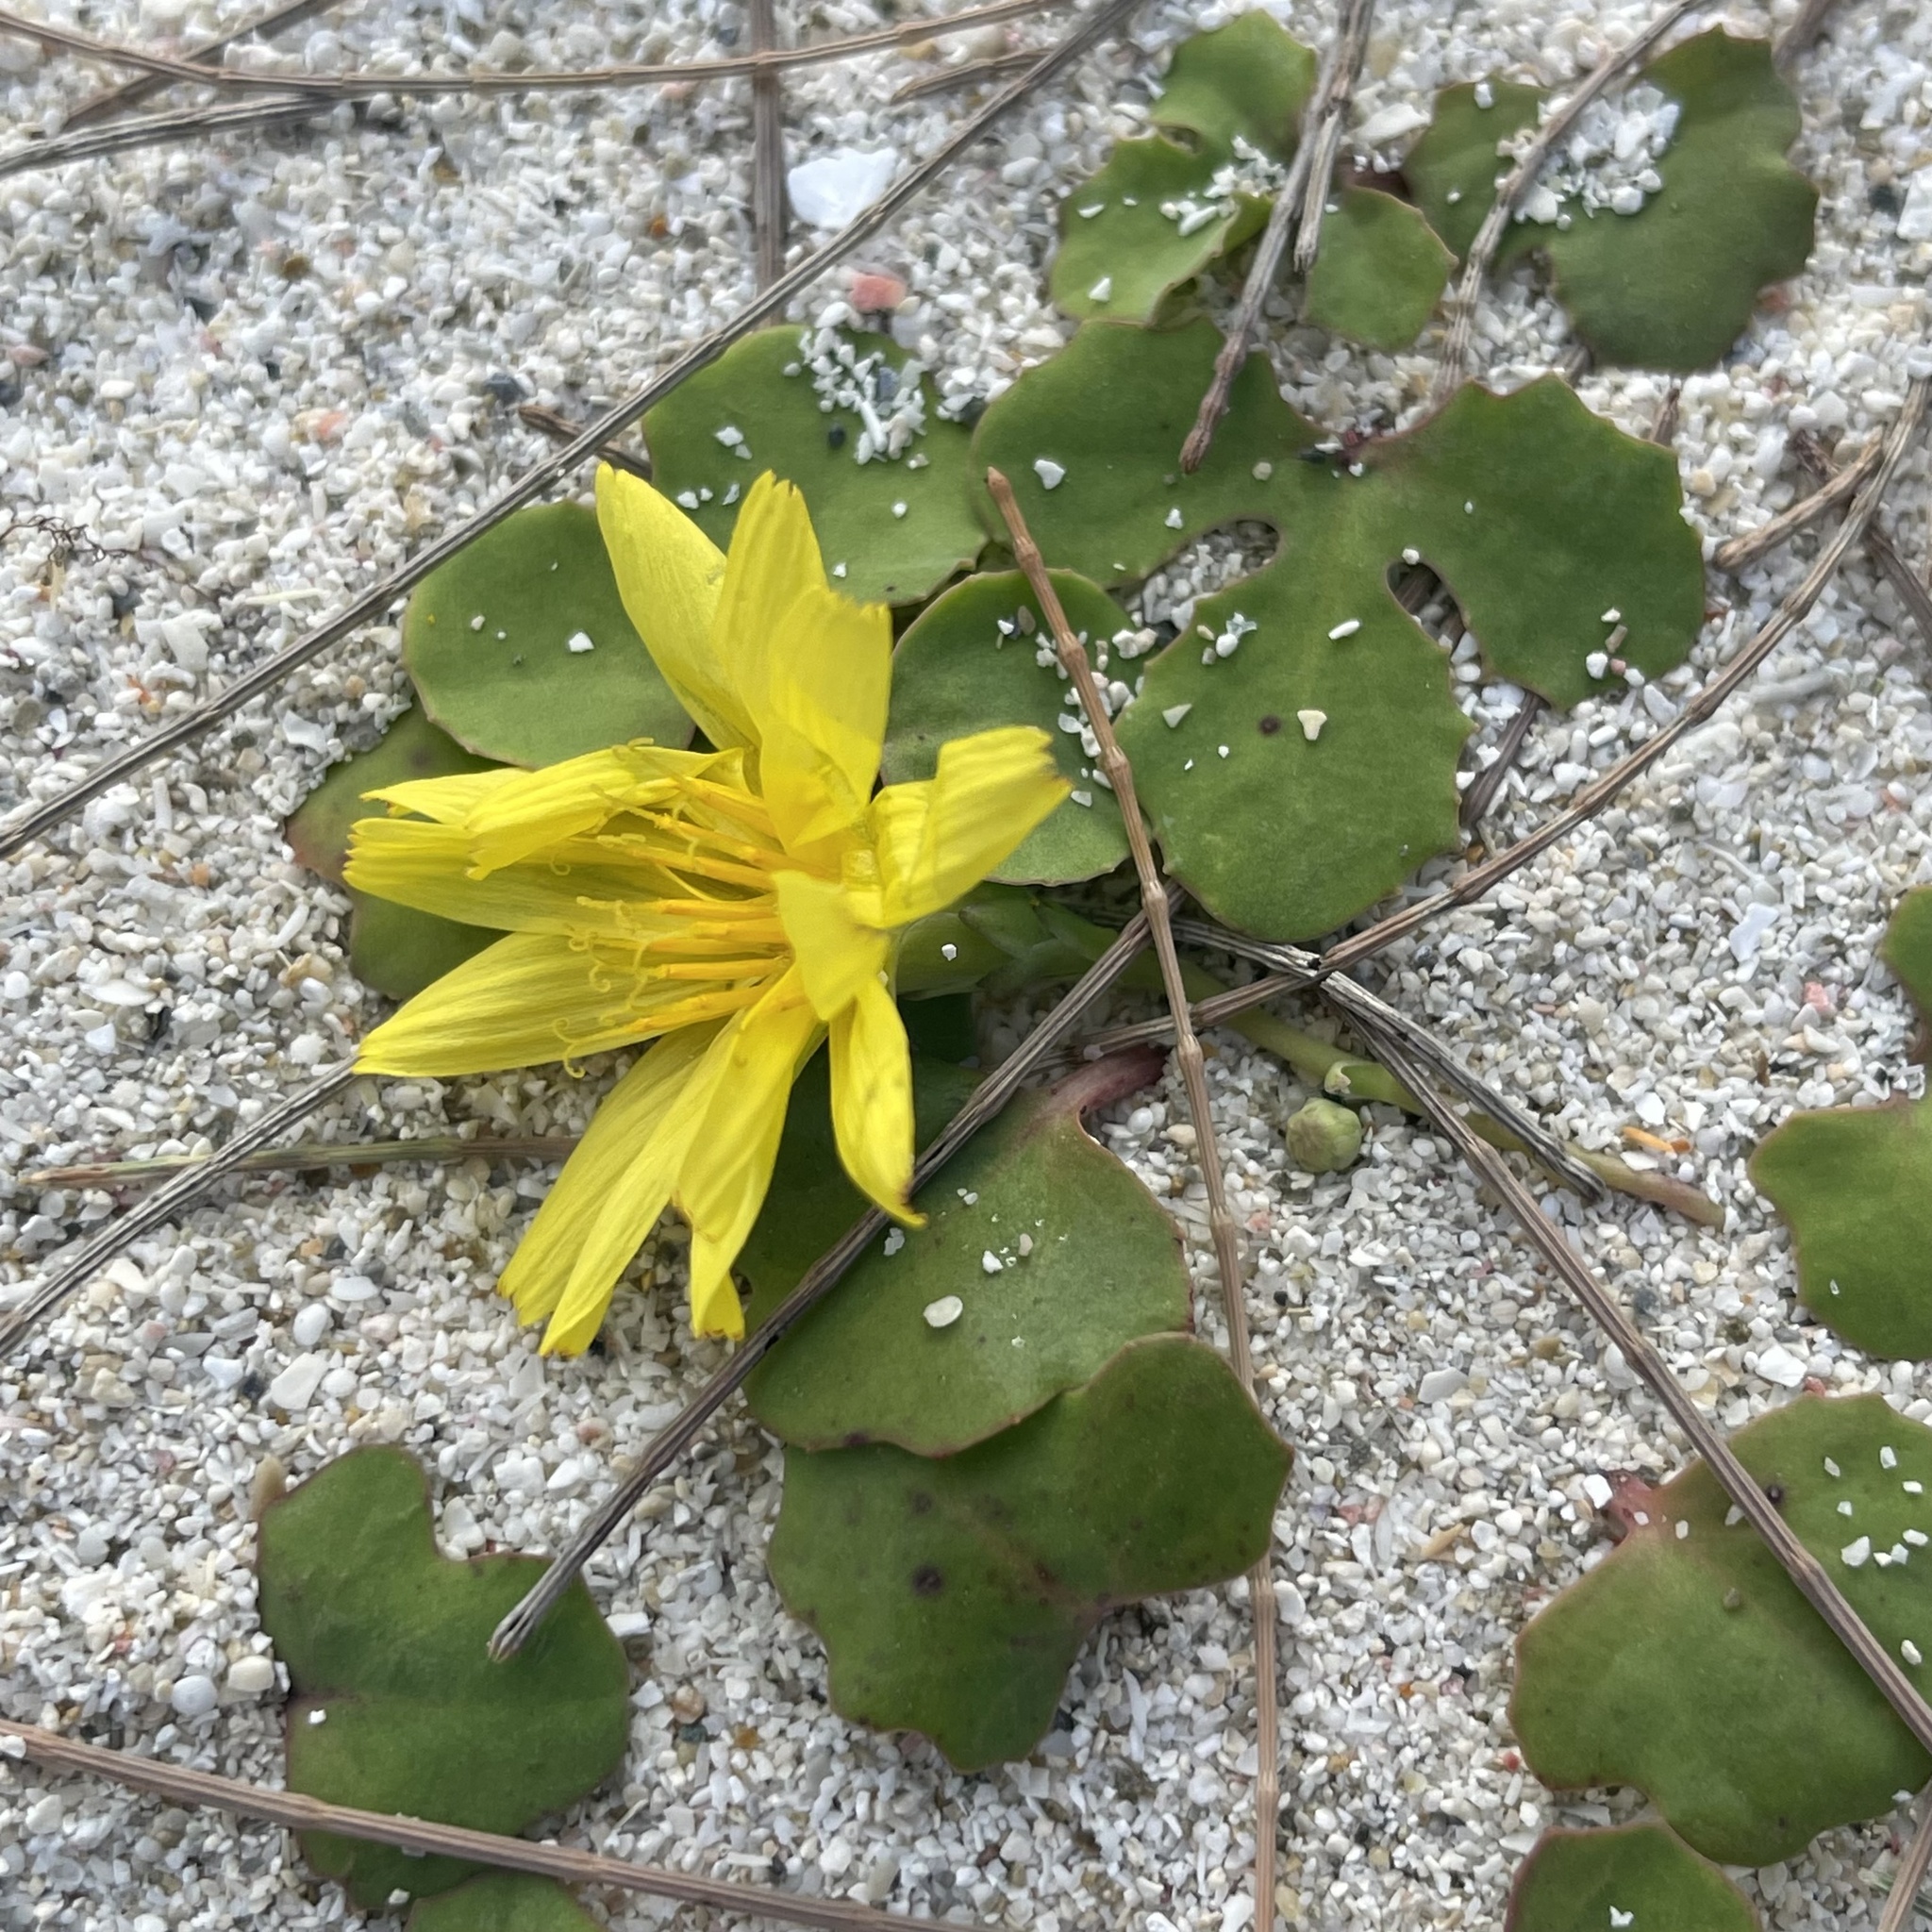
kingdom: Plantae
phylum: Tracheophyta
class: Magnoliopsida
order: Asterales
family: Asteraceae
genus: Ixeris
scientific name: Ixeris repens
